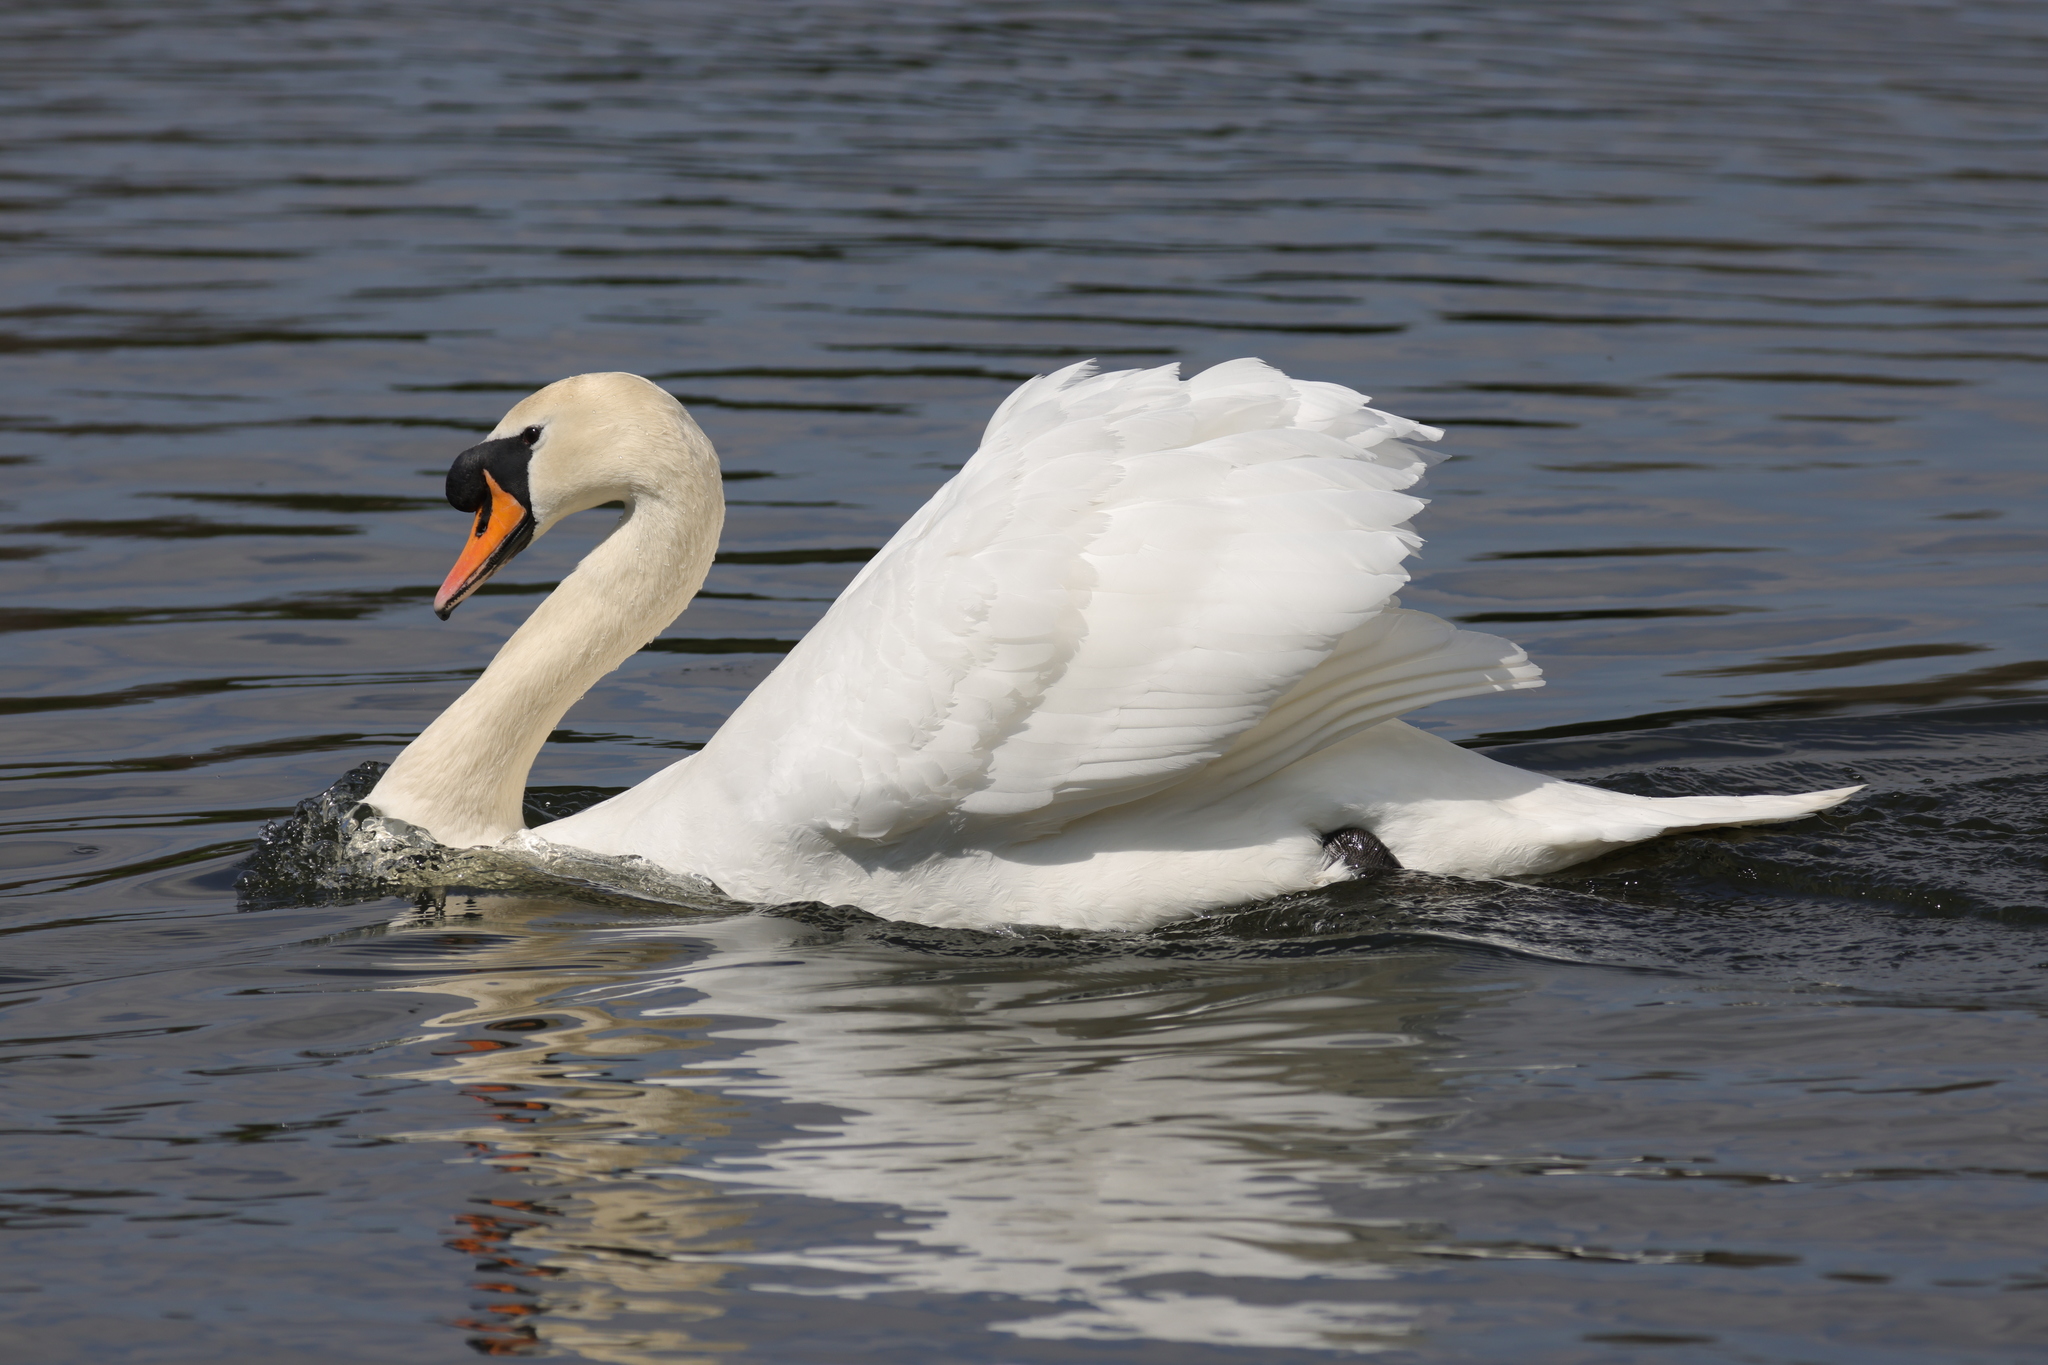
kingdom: Animalia
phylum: Chordata
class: Aves
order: Anseriformes
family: Anatidae
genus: Cygnus
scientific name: Cygnus olor
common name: Mute swan
